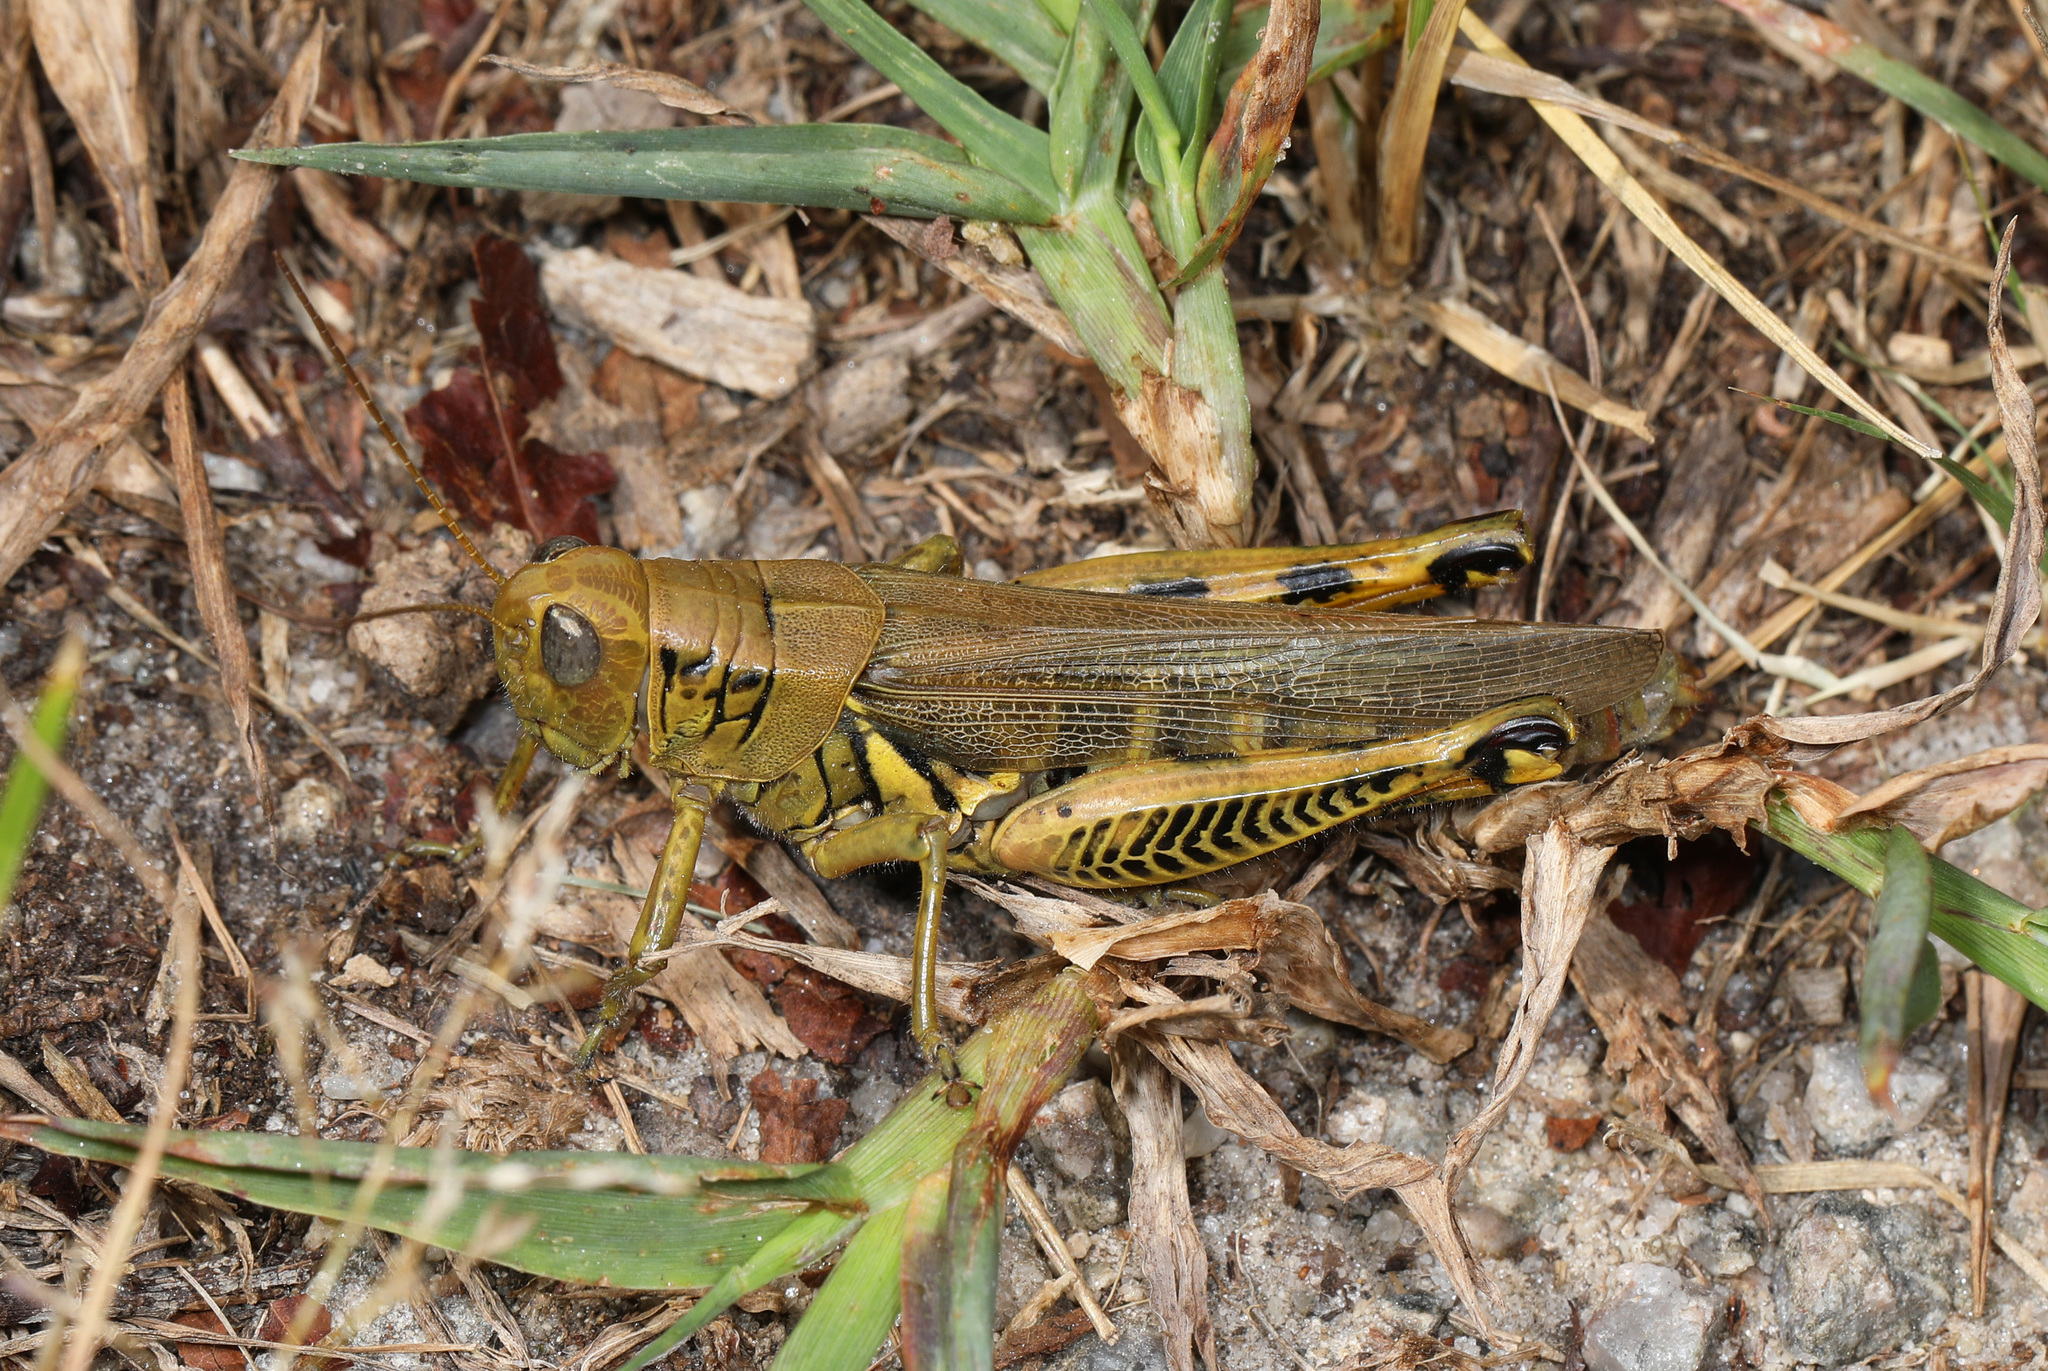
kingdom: Animalia
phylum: Arthropoda
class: Insecta
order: Orthoptera
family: Acrididae
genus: Melanoplus
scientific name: Melanoplus differentialis
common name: Differential grasshopper
